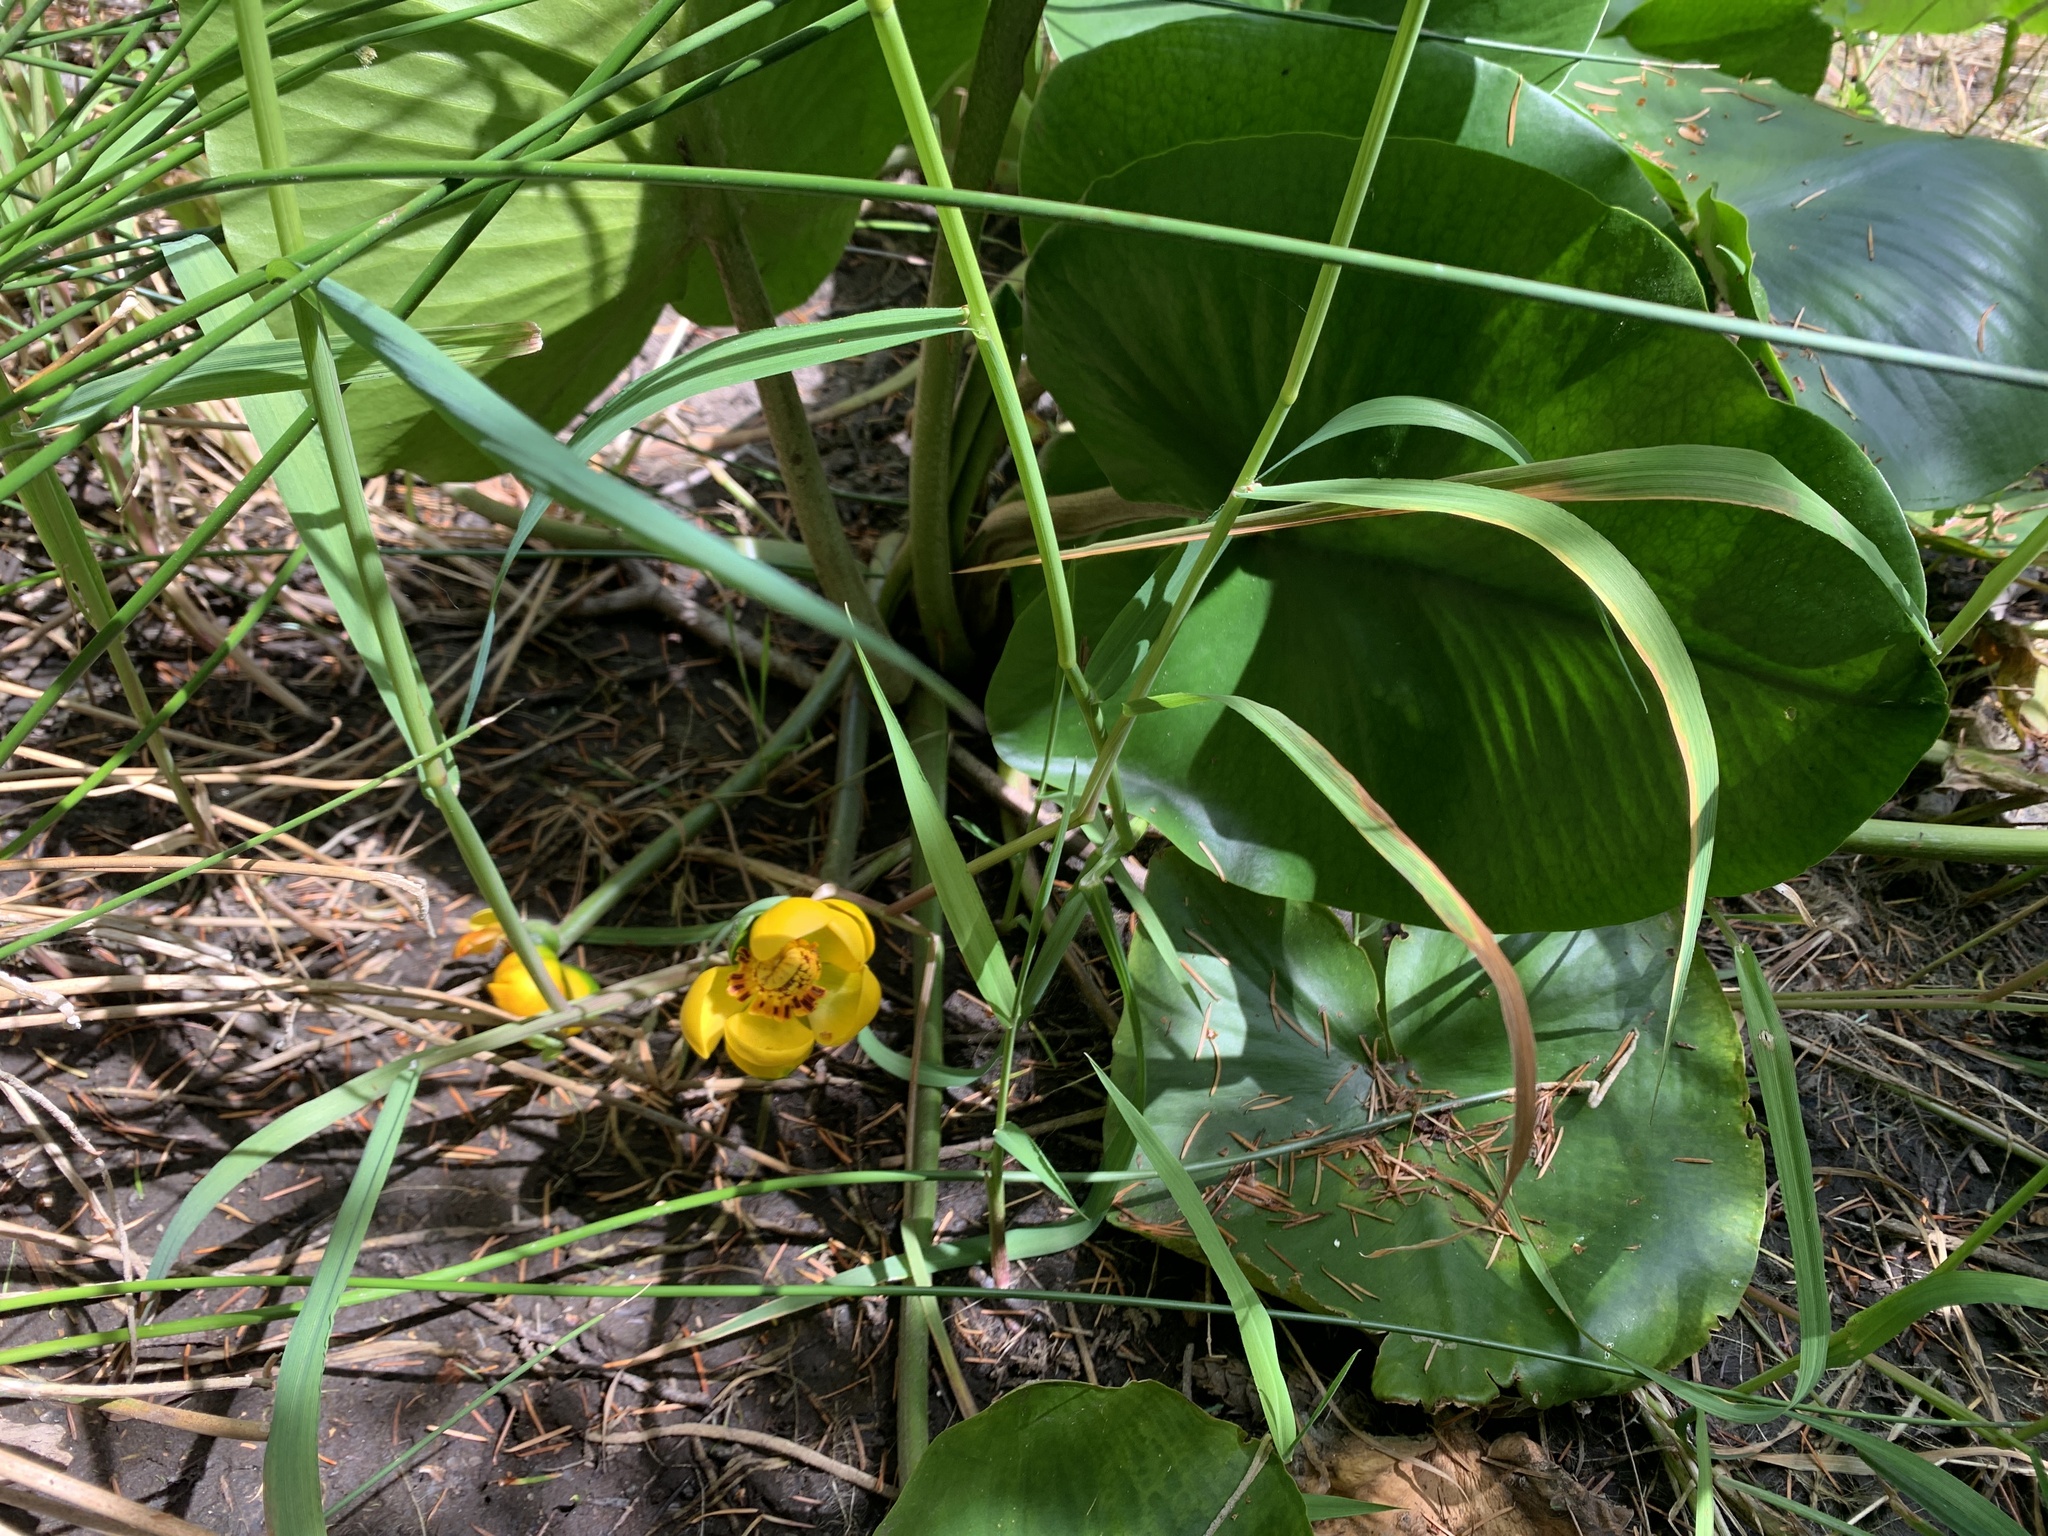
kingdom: Plantae
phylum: Tracheophyta
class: Magnoliopsida
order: Nymphaeales
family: Nymphaeaceae
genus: Nuphar
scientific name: Nuphar polysepala
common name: Rocky mountain cow-lily
